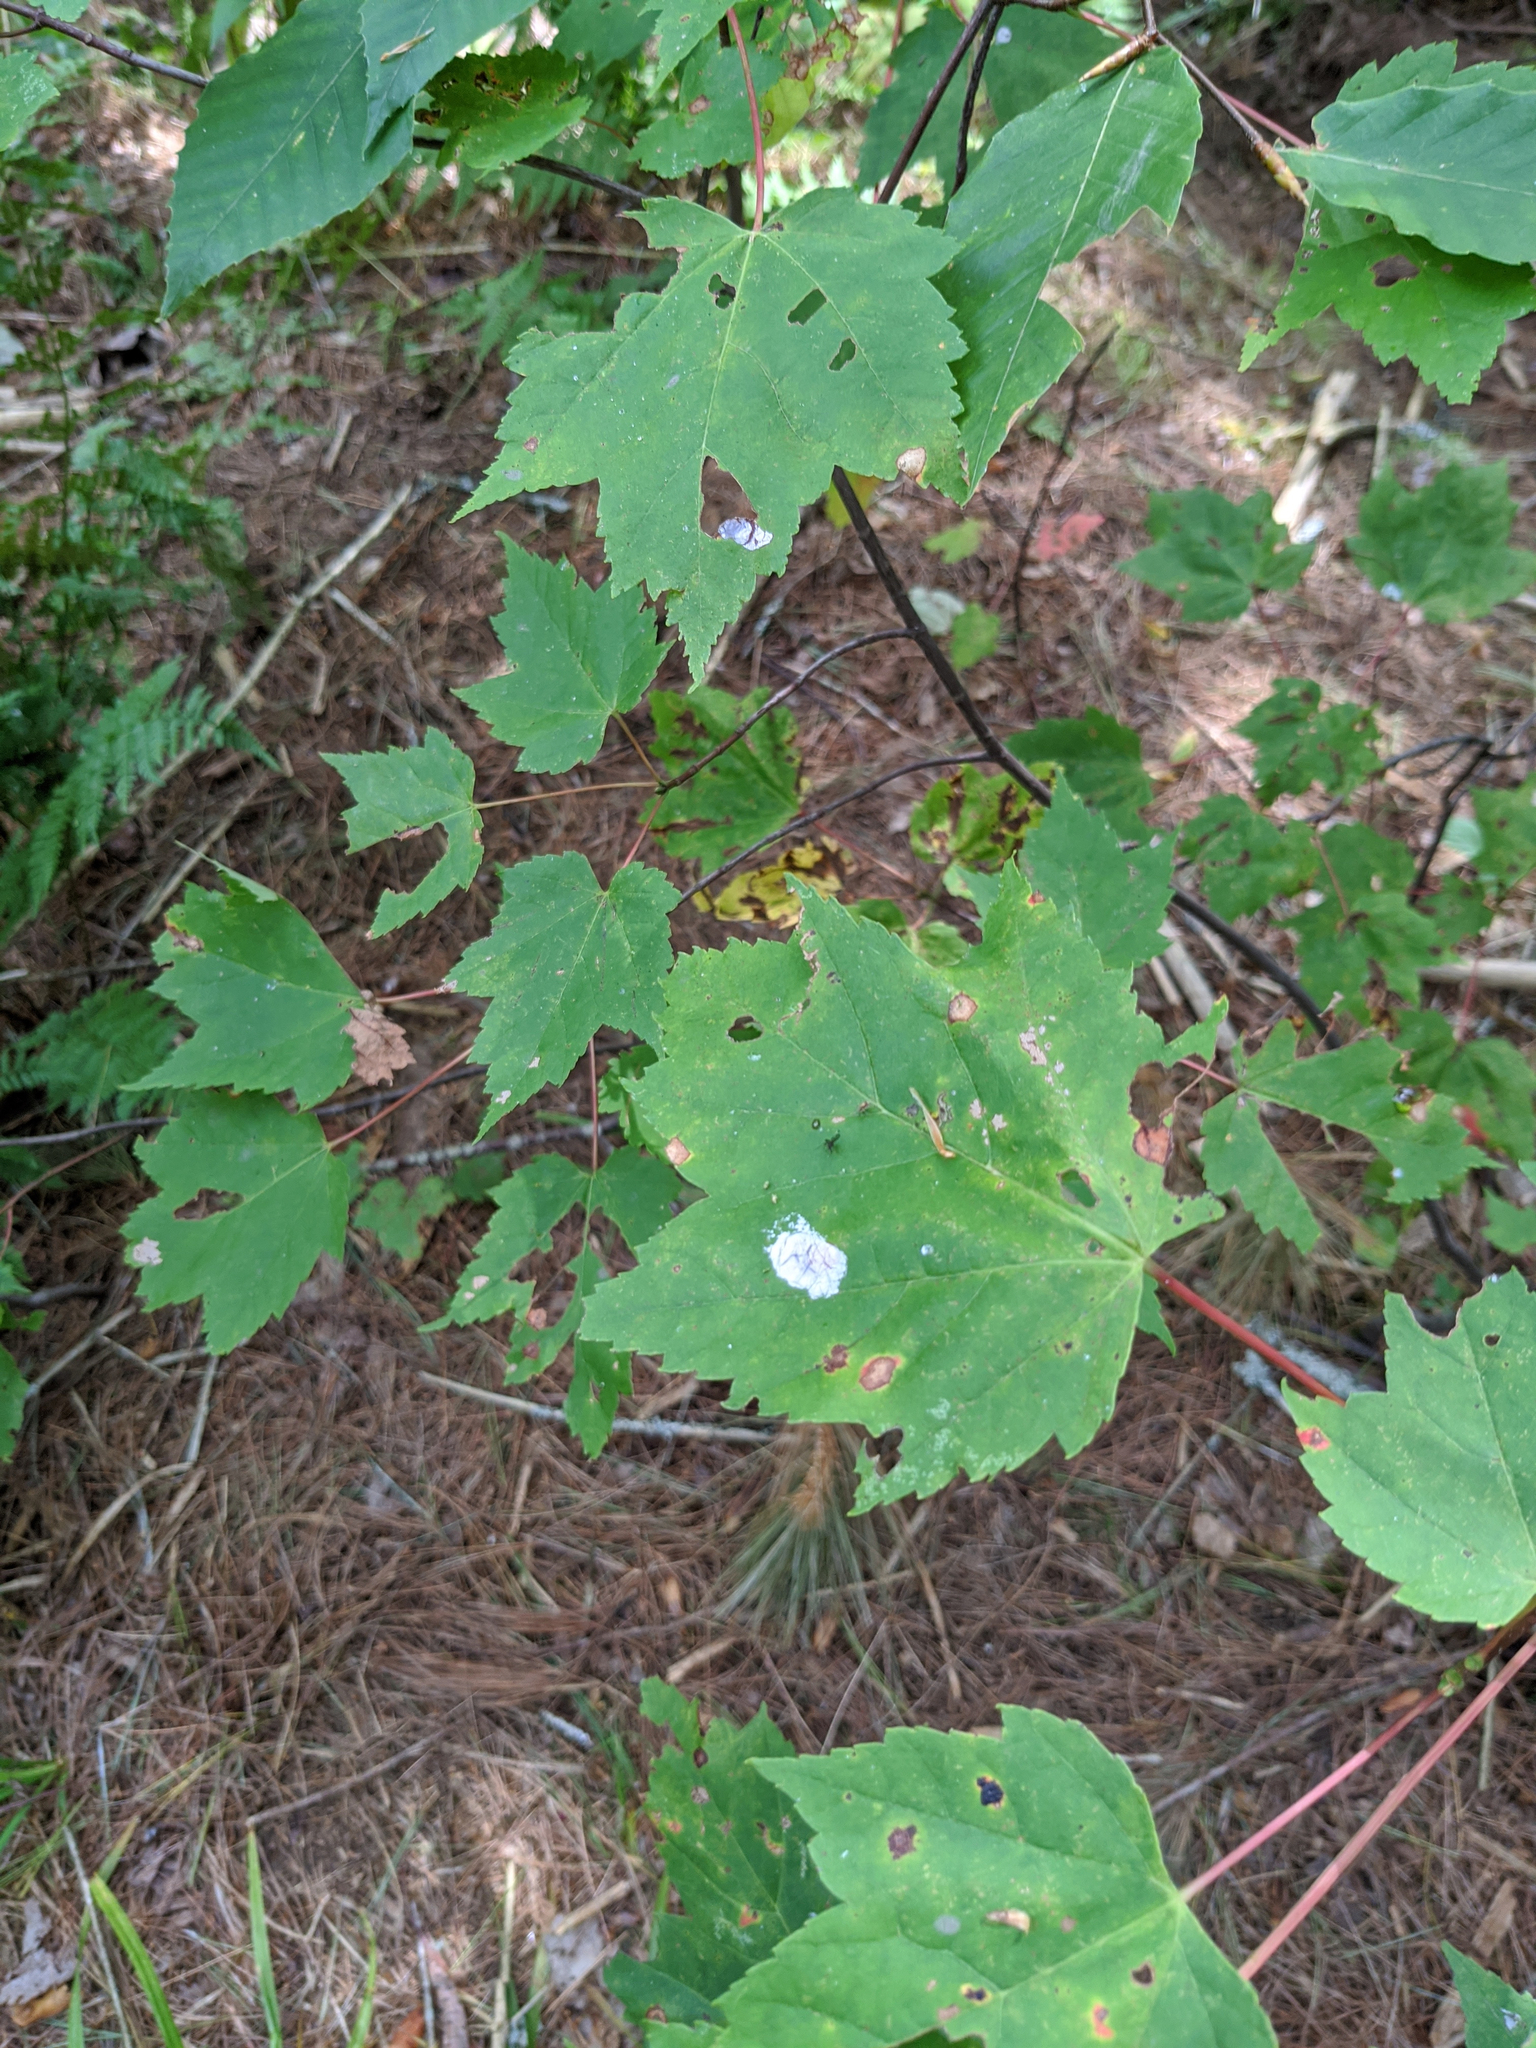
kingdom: Plantae
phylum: Tracheophyta
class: Magnoliopsida
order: Sapindales
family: Sapindaceae
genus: Acer
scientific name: Acer rubrum
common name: Red maple
